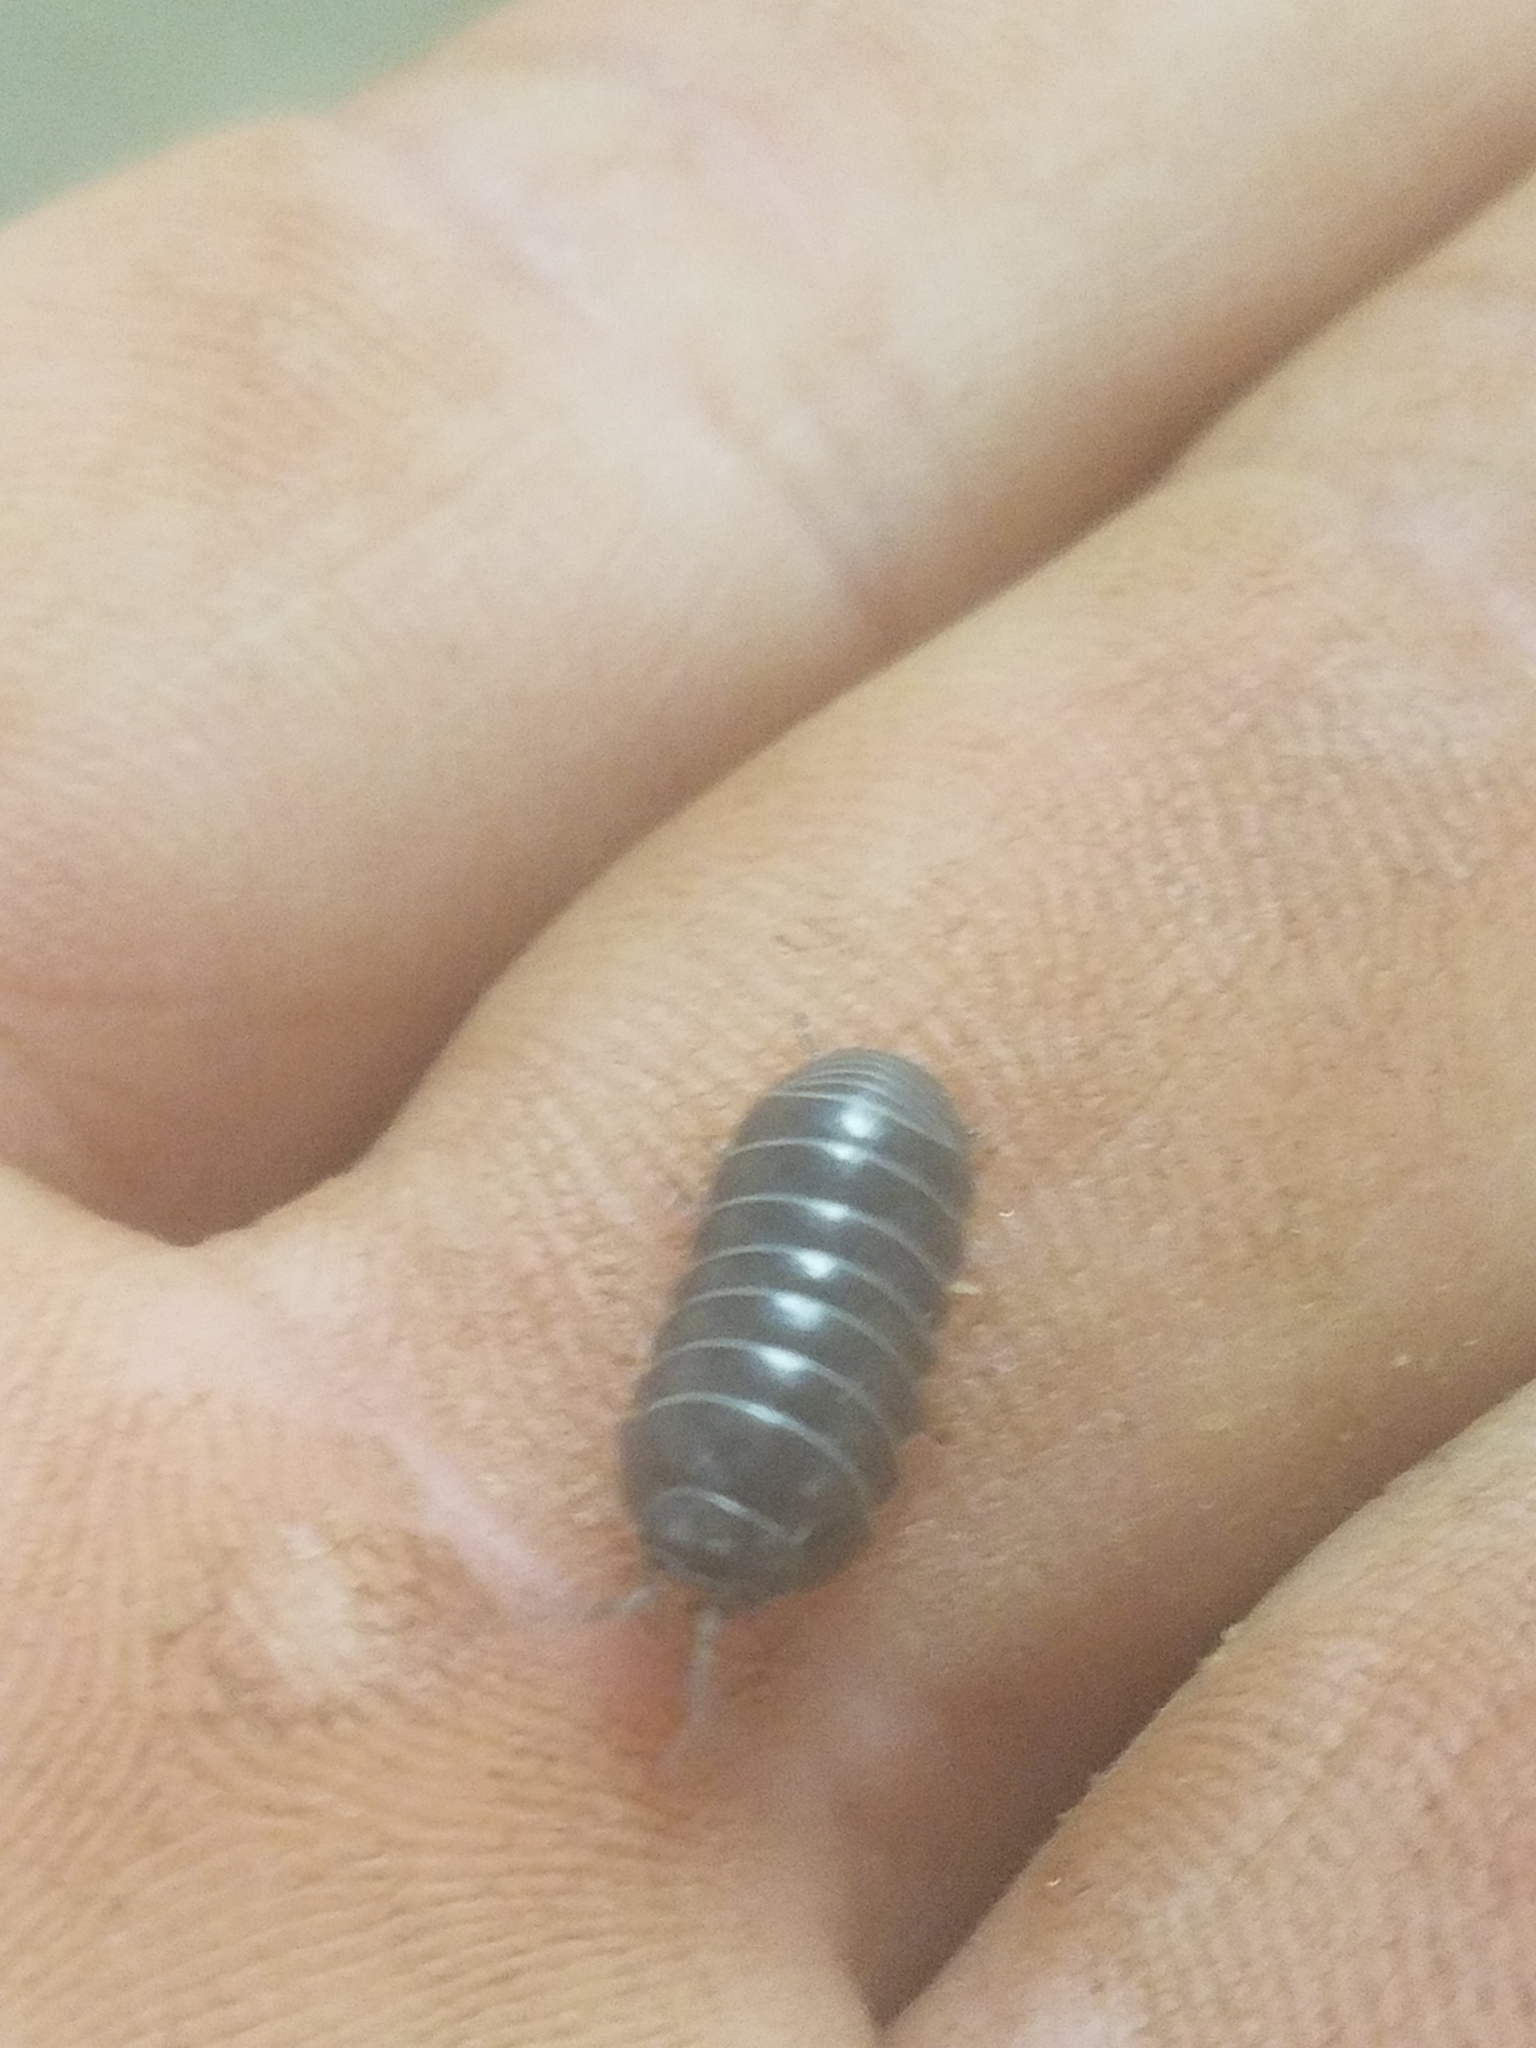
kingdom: Animalia
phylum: Arthropoda
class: Malacostraca
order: Isopoda
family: Armadillidiidae
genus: Armadillidium
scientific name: Armadillidium vulgare
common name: Common pill woodlouse
